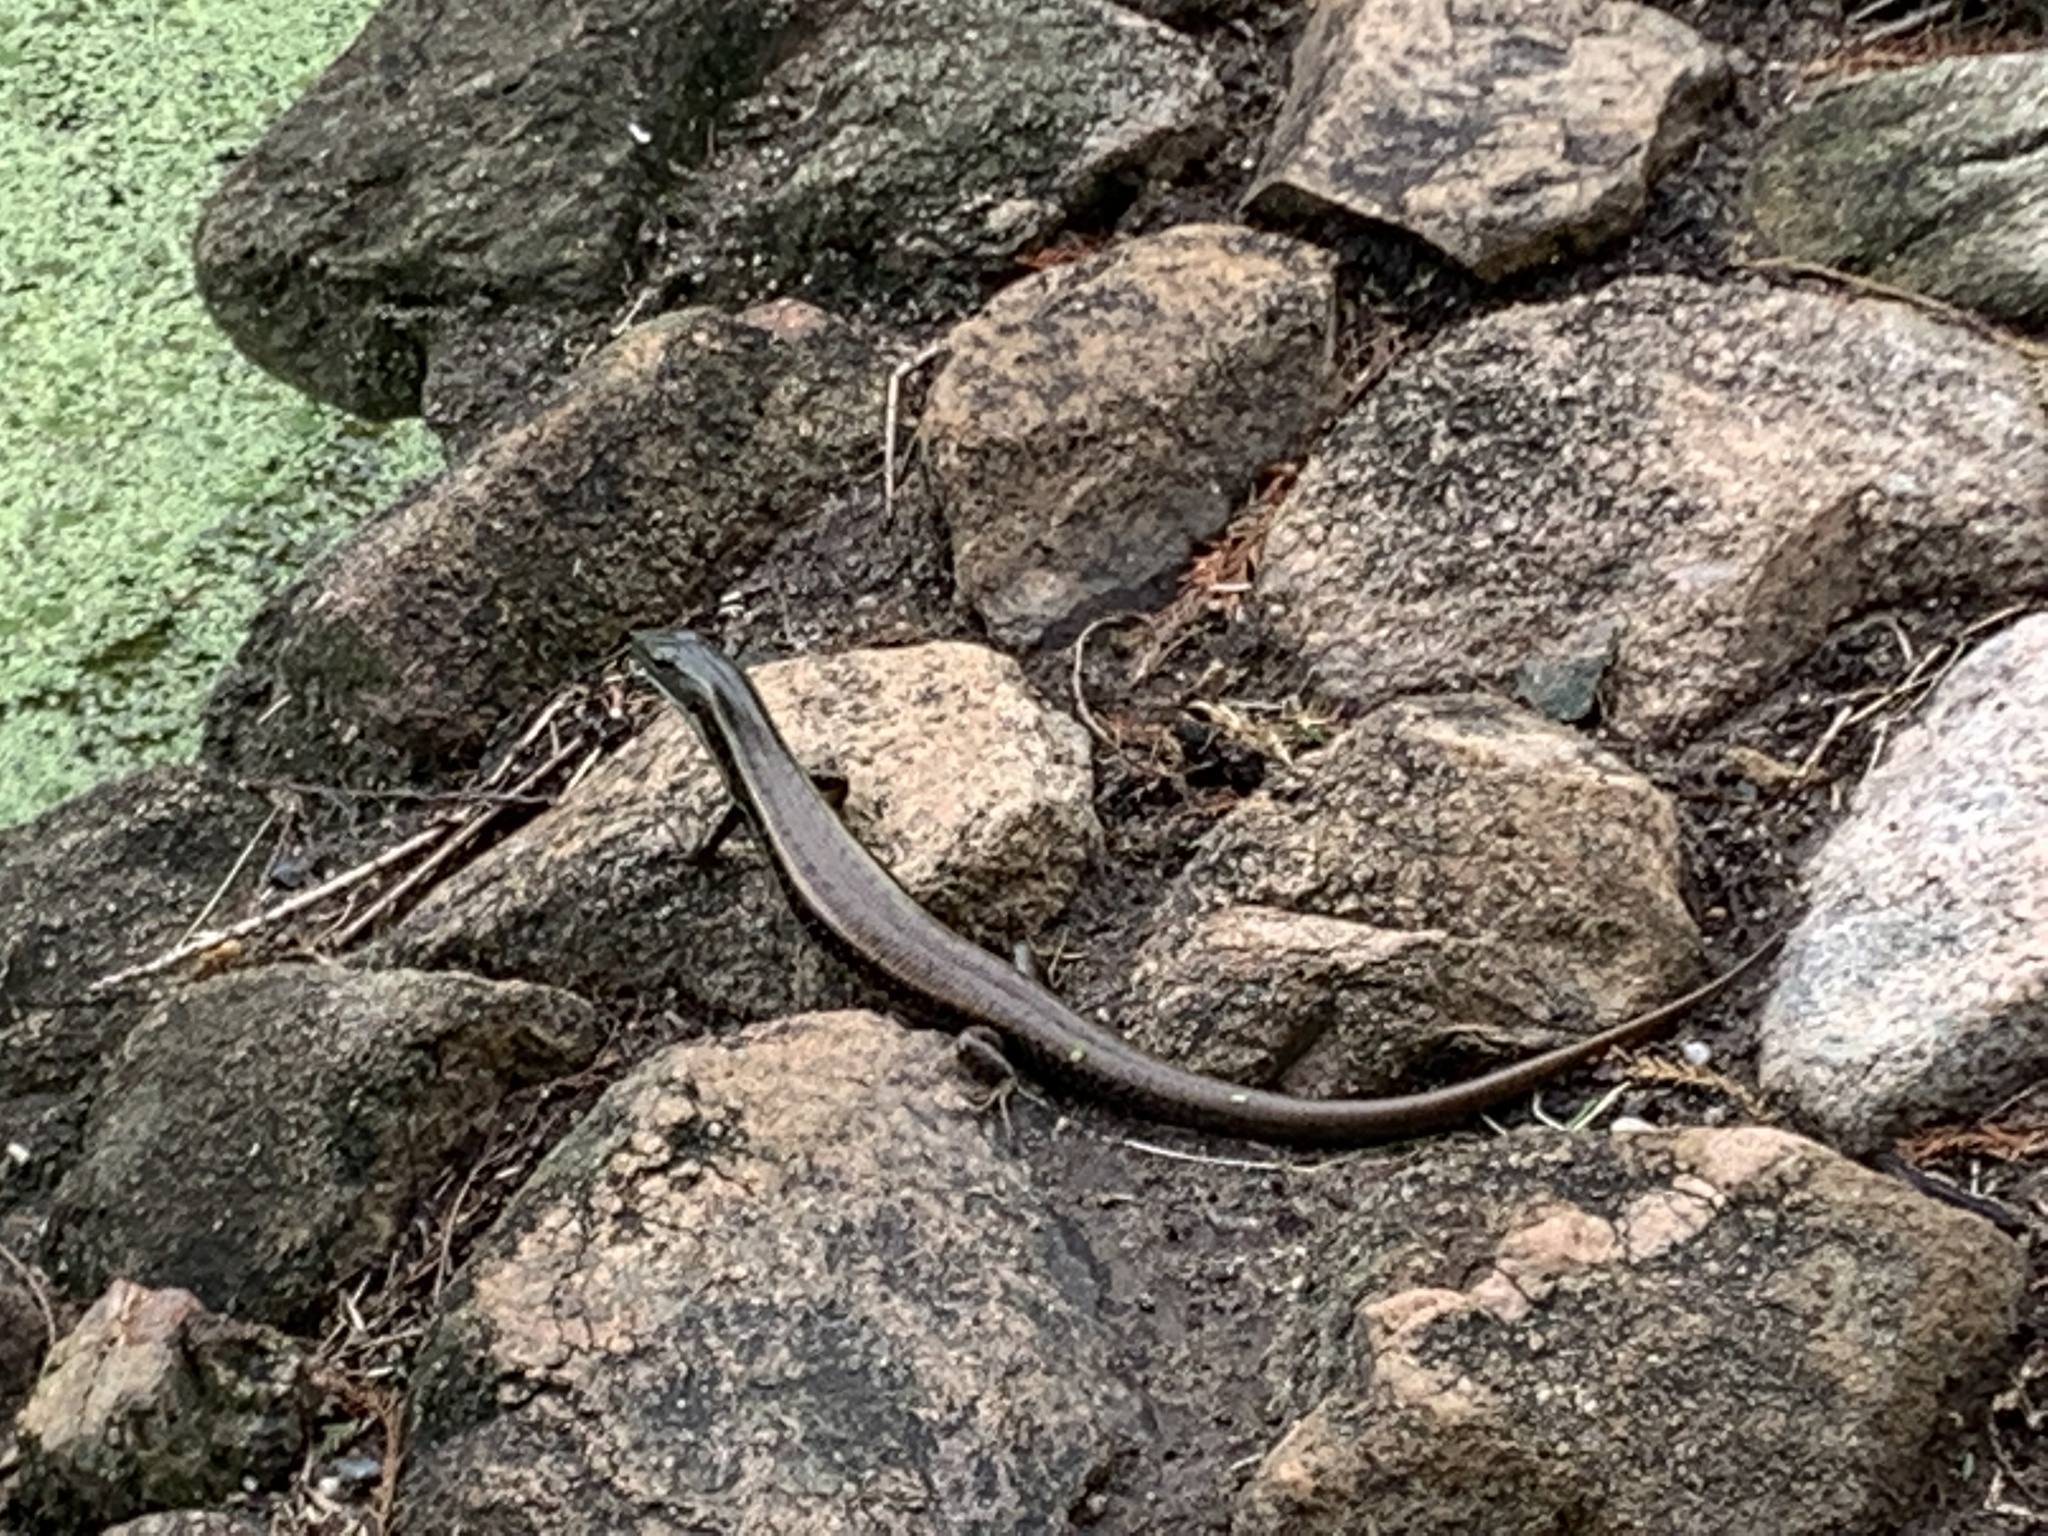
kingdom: Animalia
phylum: Chordata
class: Squamata
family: Scincidae
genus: Eulamprus
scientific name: Eulamprus quoyii
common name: Eastern water skink
